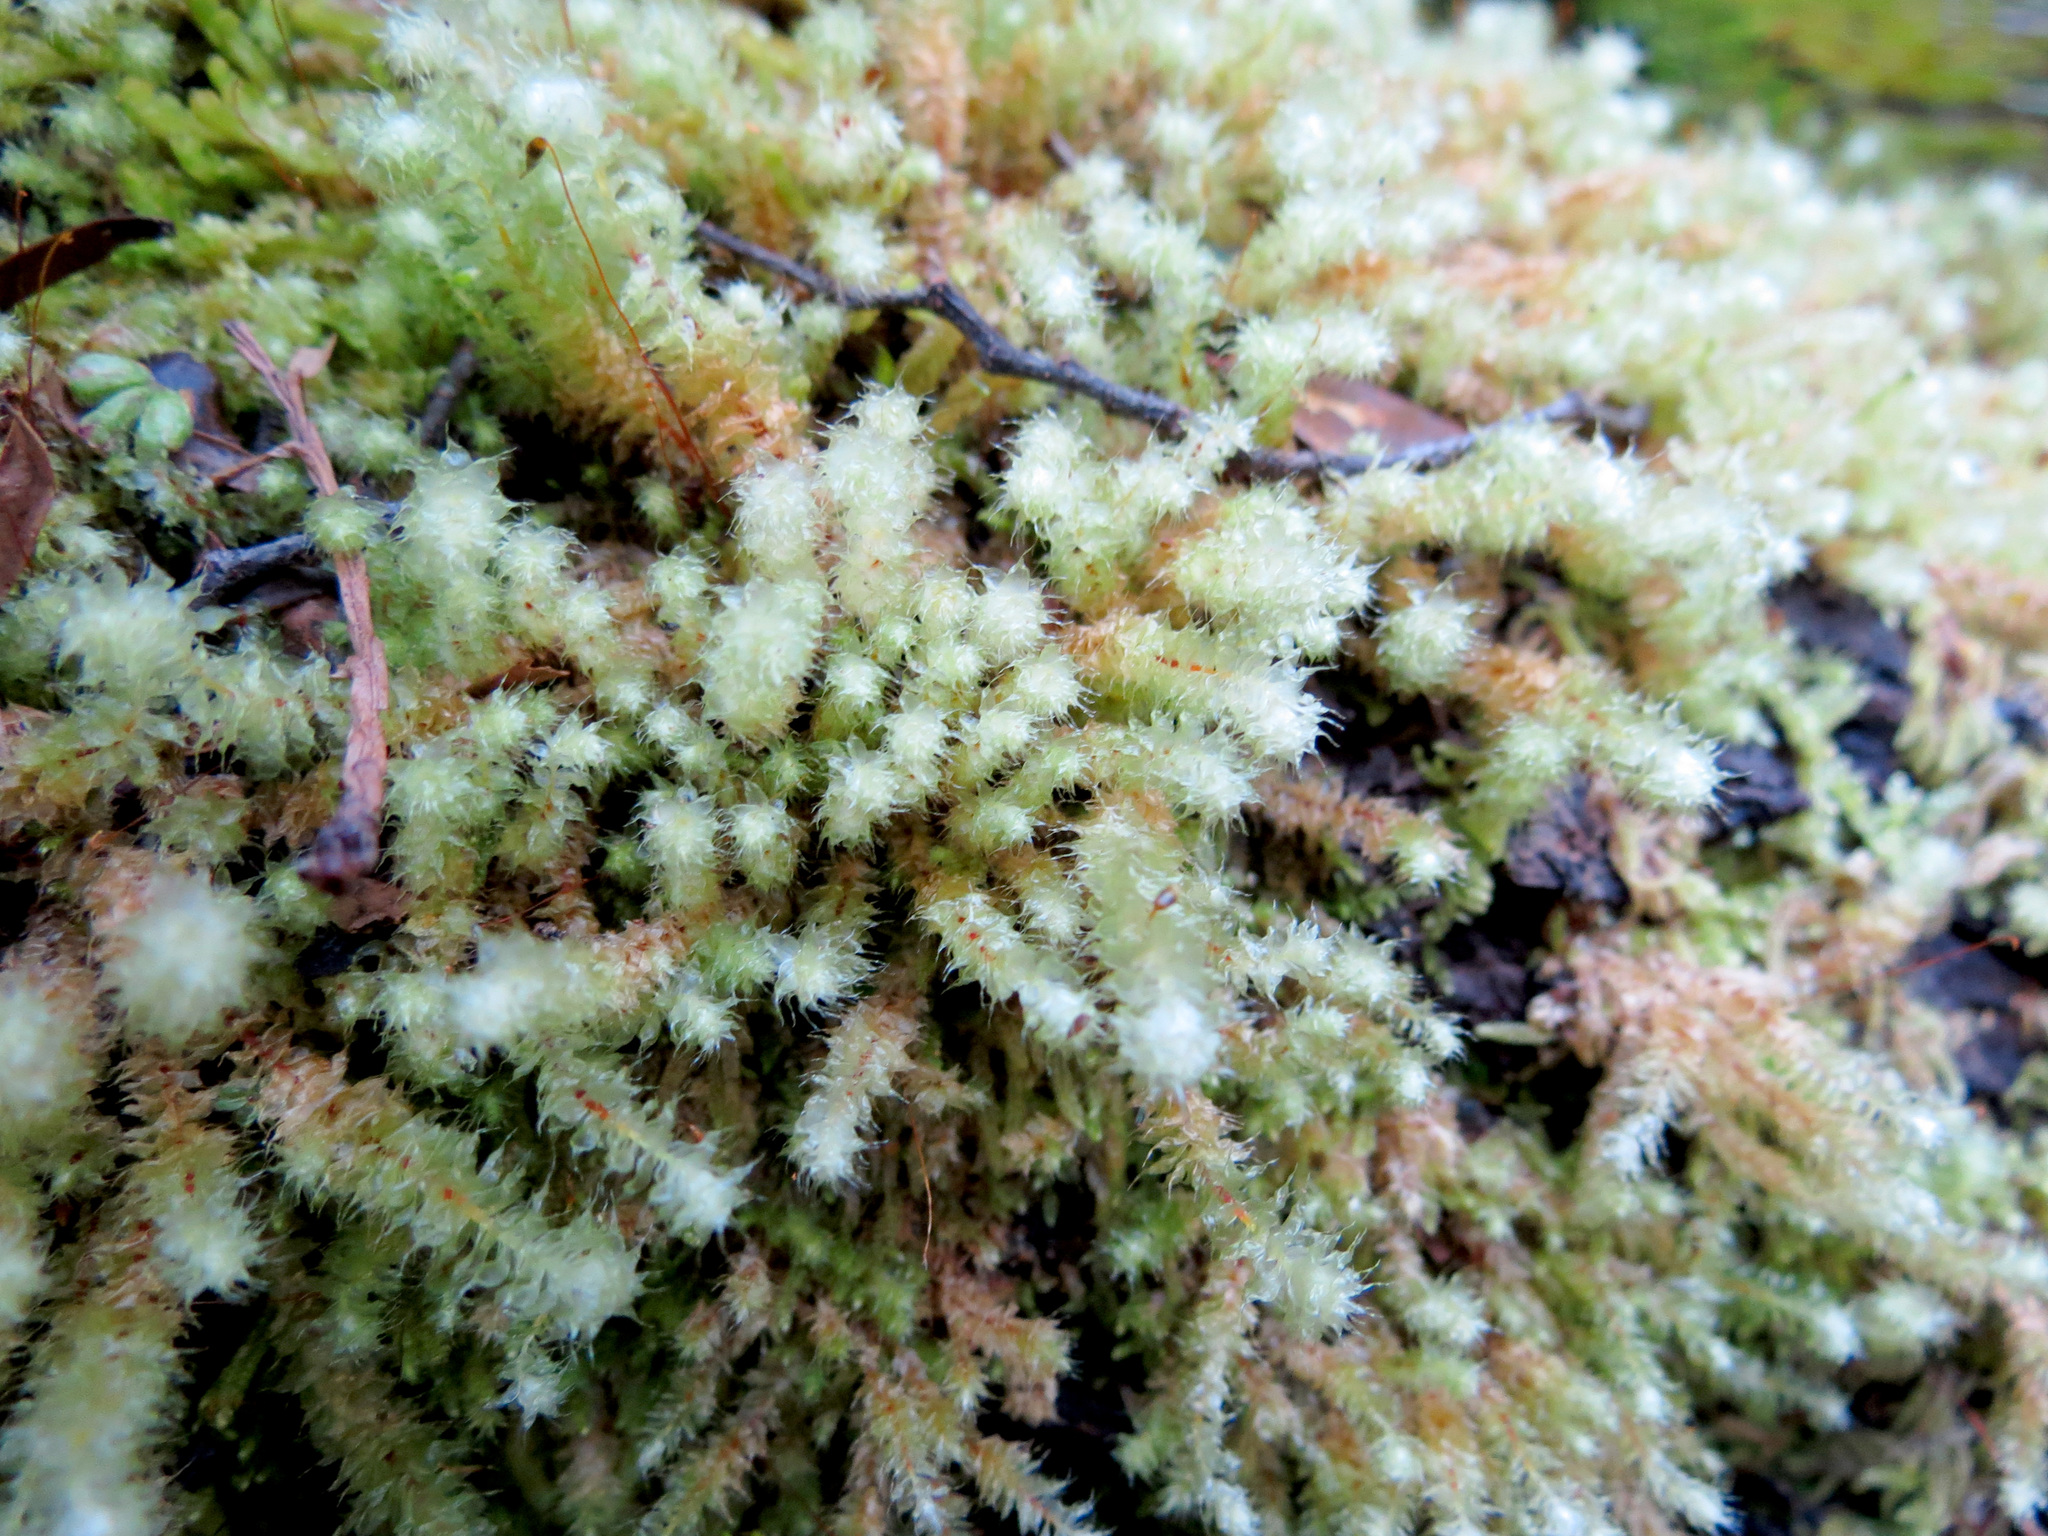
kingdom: Plantae
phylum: Bryophyta
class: Bryopsida
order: Ptychomniales
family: Ptychomniaceae
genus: Ptychomnion
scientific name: Ptychomnion aciculare
